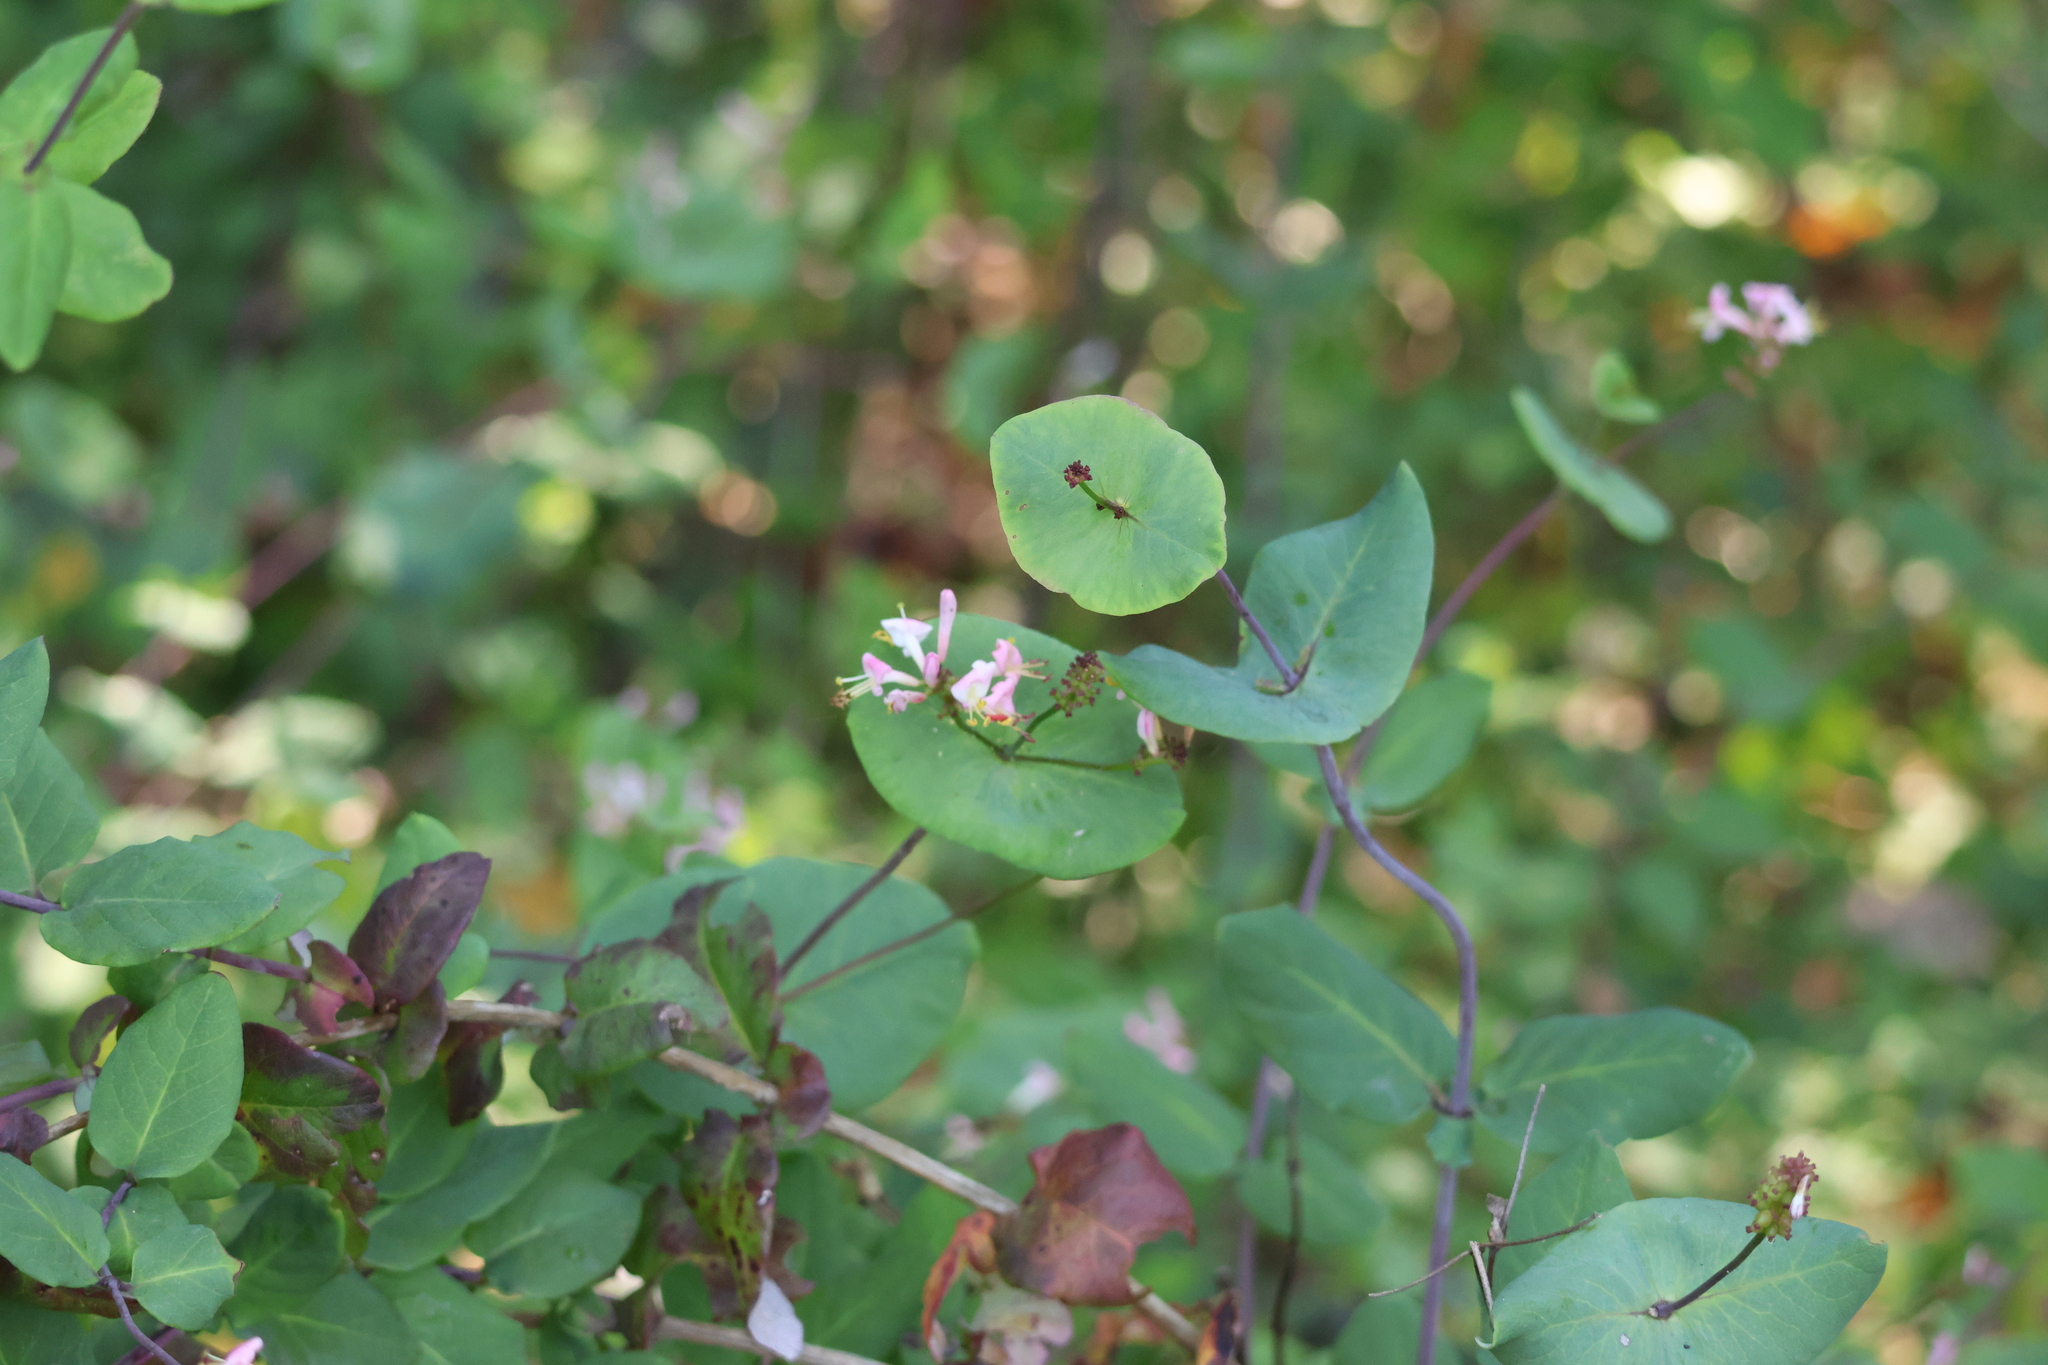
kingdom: Plantae
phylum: Tracheophyta
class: Magnoliopsida
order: Dipsacales
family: Caprifoliaceae
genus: Lonicera
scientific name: Lonicera hispidula
